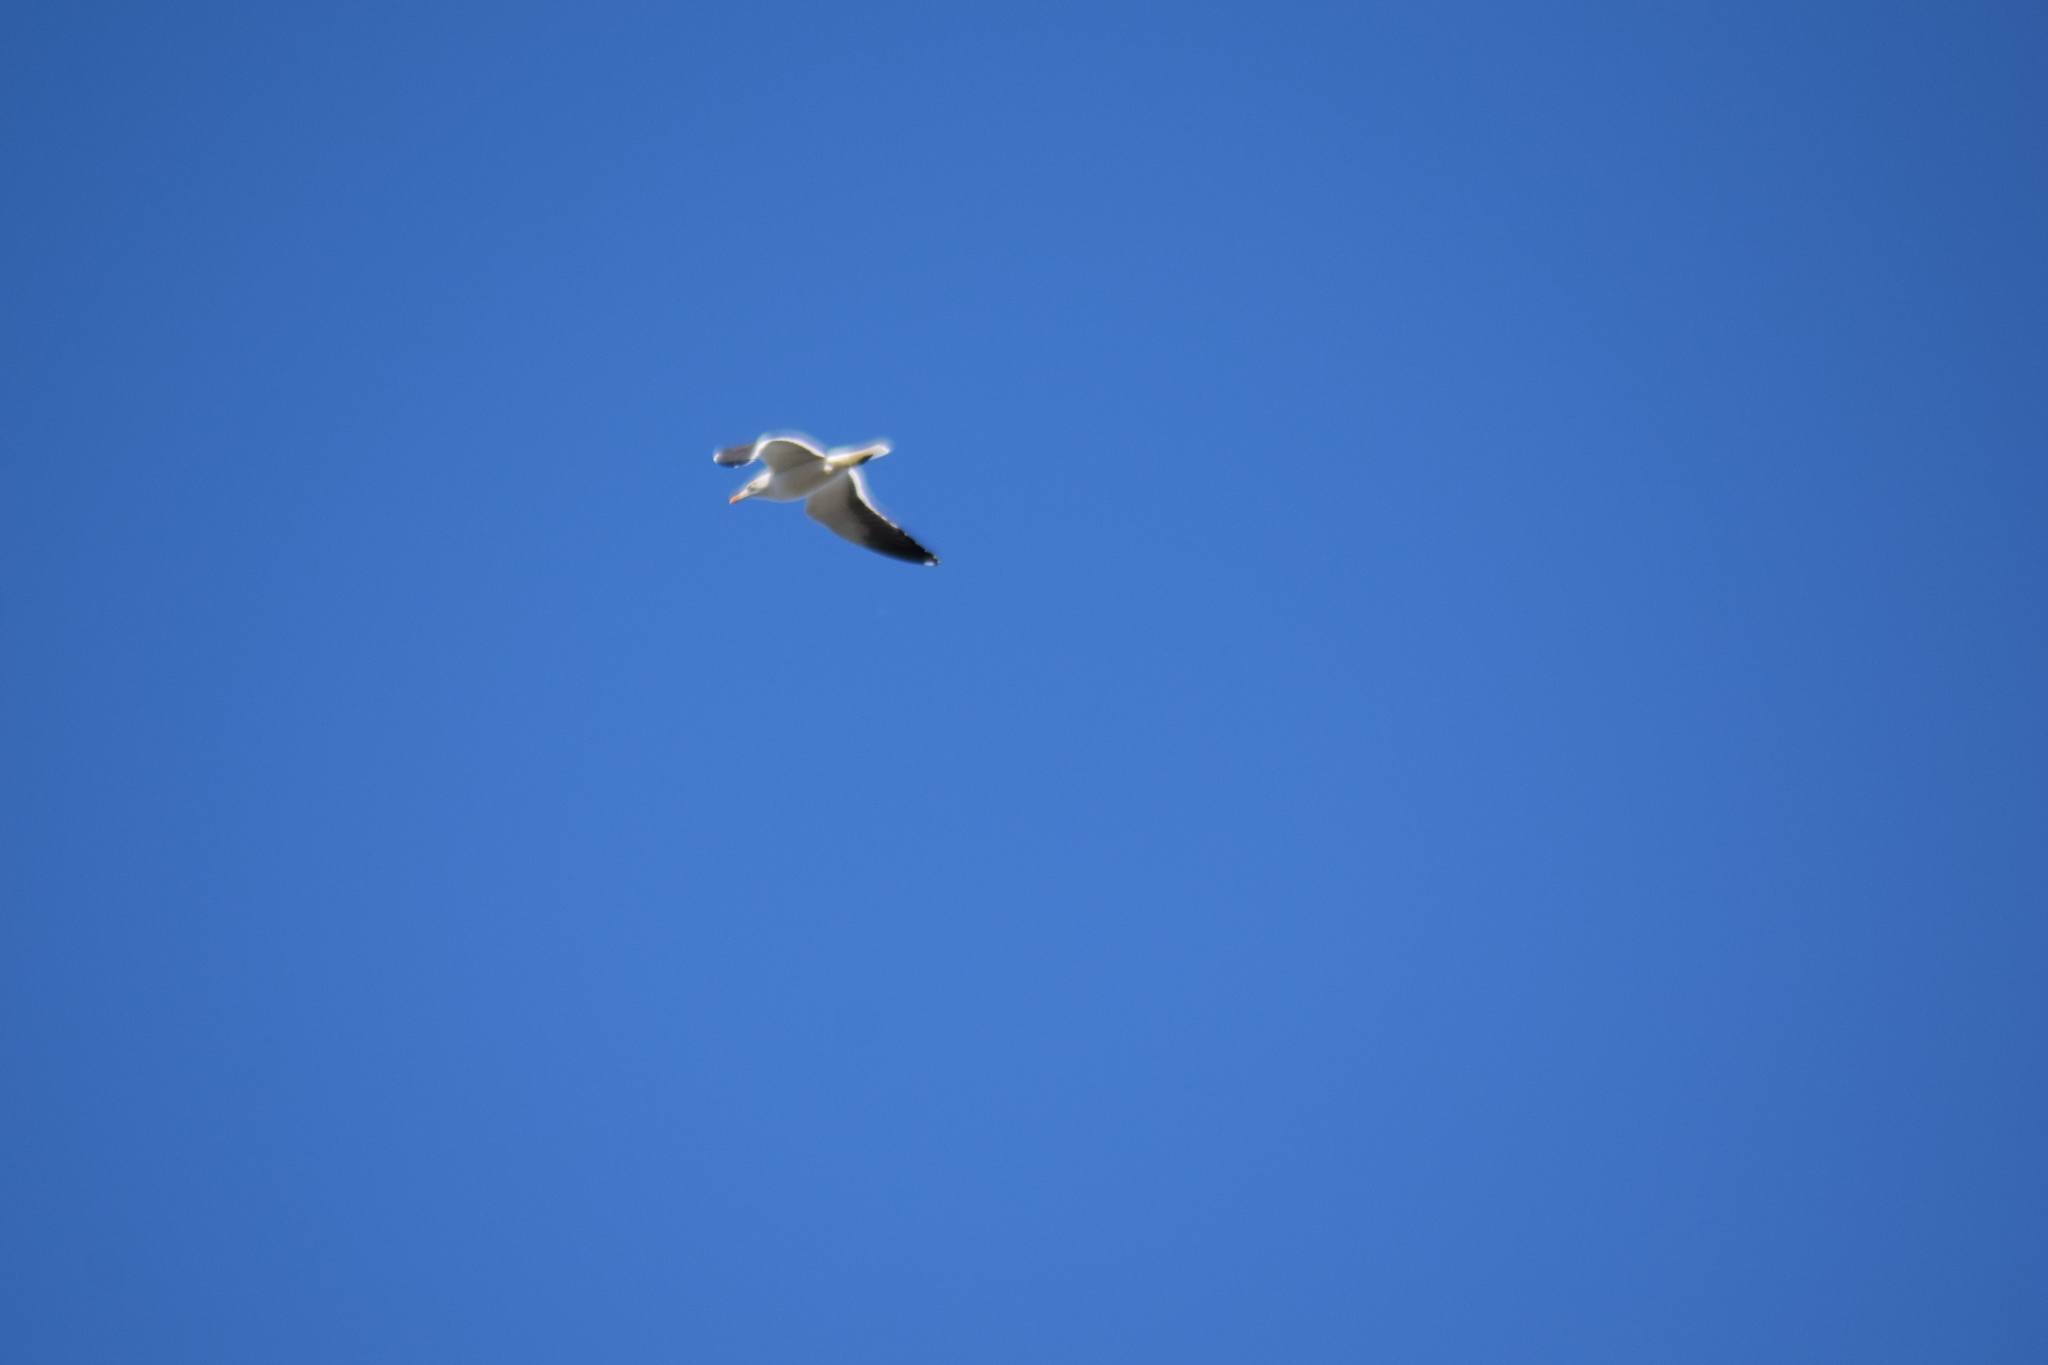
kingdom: Animalia
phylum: Chordata
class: Aves
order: Charadriiformes
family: Laridae
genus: Larus
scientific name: Larus fuscus
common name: Lesser black-backed gull
